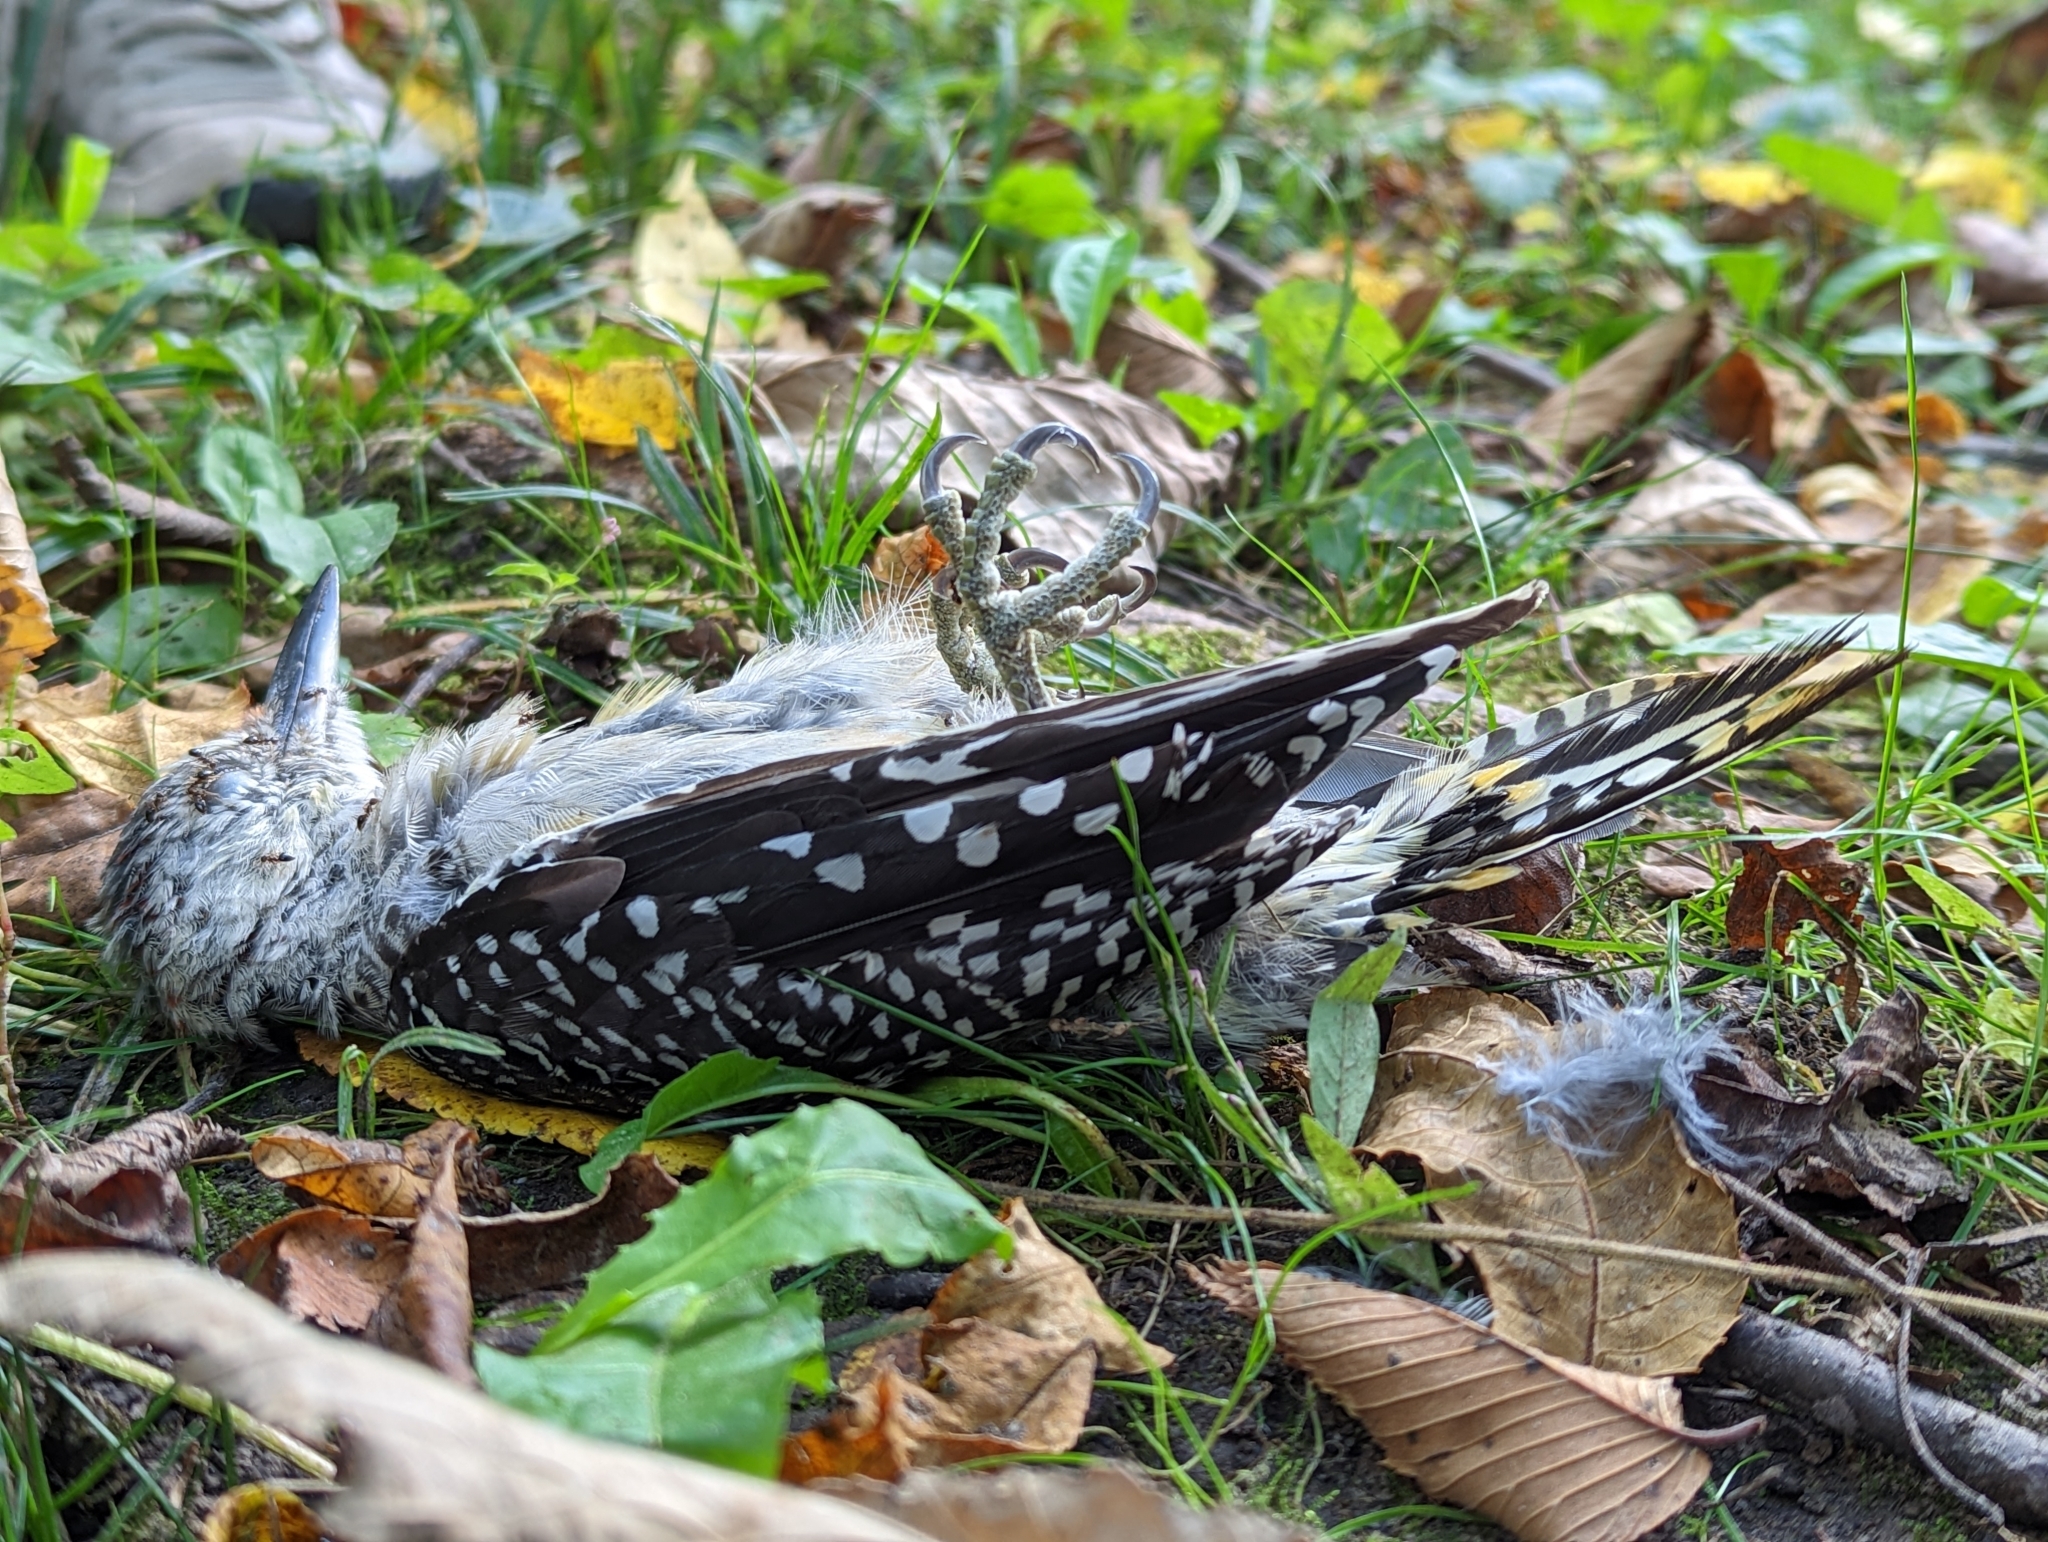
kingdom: Animalia
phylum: Chordata
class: Aves
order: Piciformes
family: Picidae
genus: Melanerpes
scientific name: Melanerpes carolinus
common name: Red-bellied woodpecker
